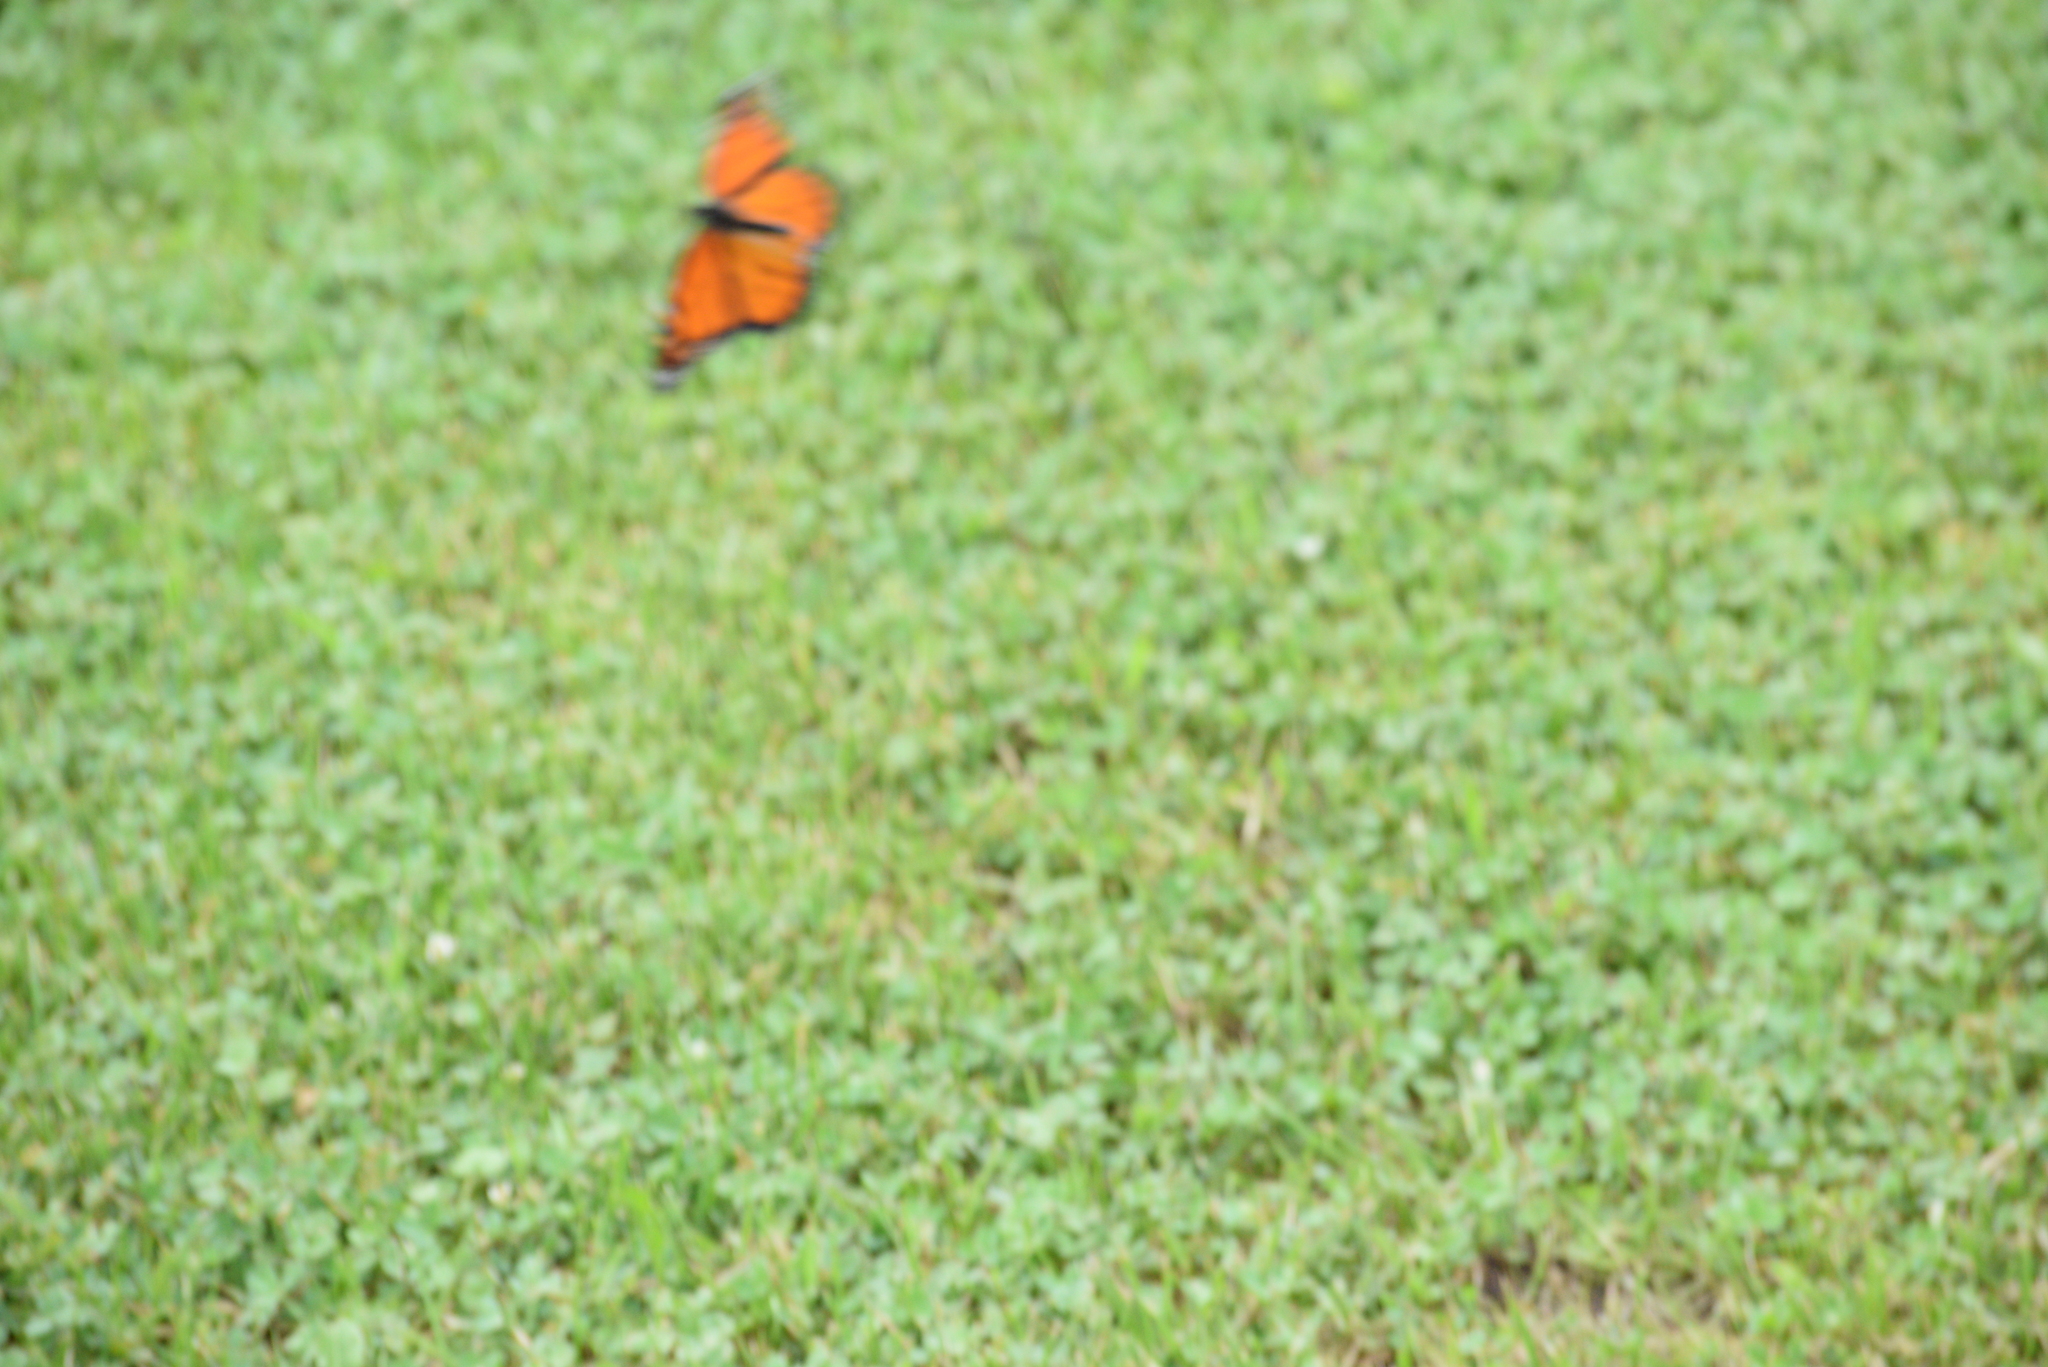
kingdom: Animalia
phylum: Arthropoda
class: Insecta
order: Lepidoptera
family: Nymphalidae
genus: Danaus
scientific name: Danaus plexippus
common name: Monarch
